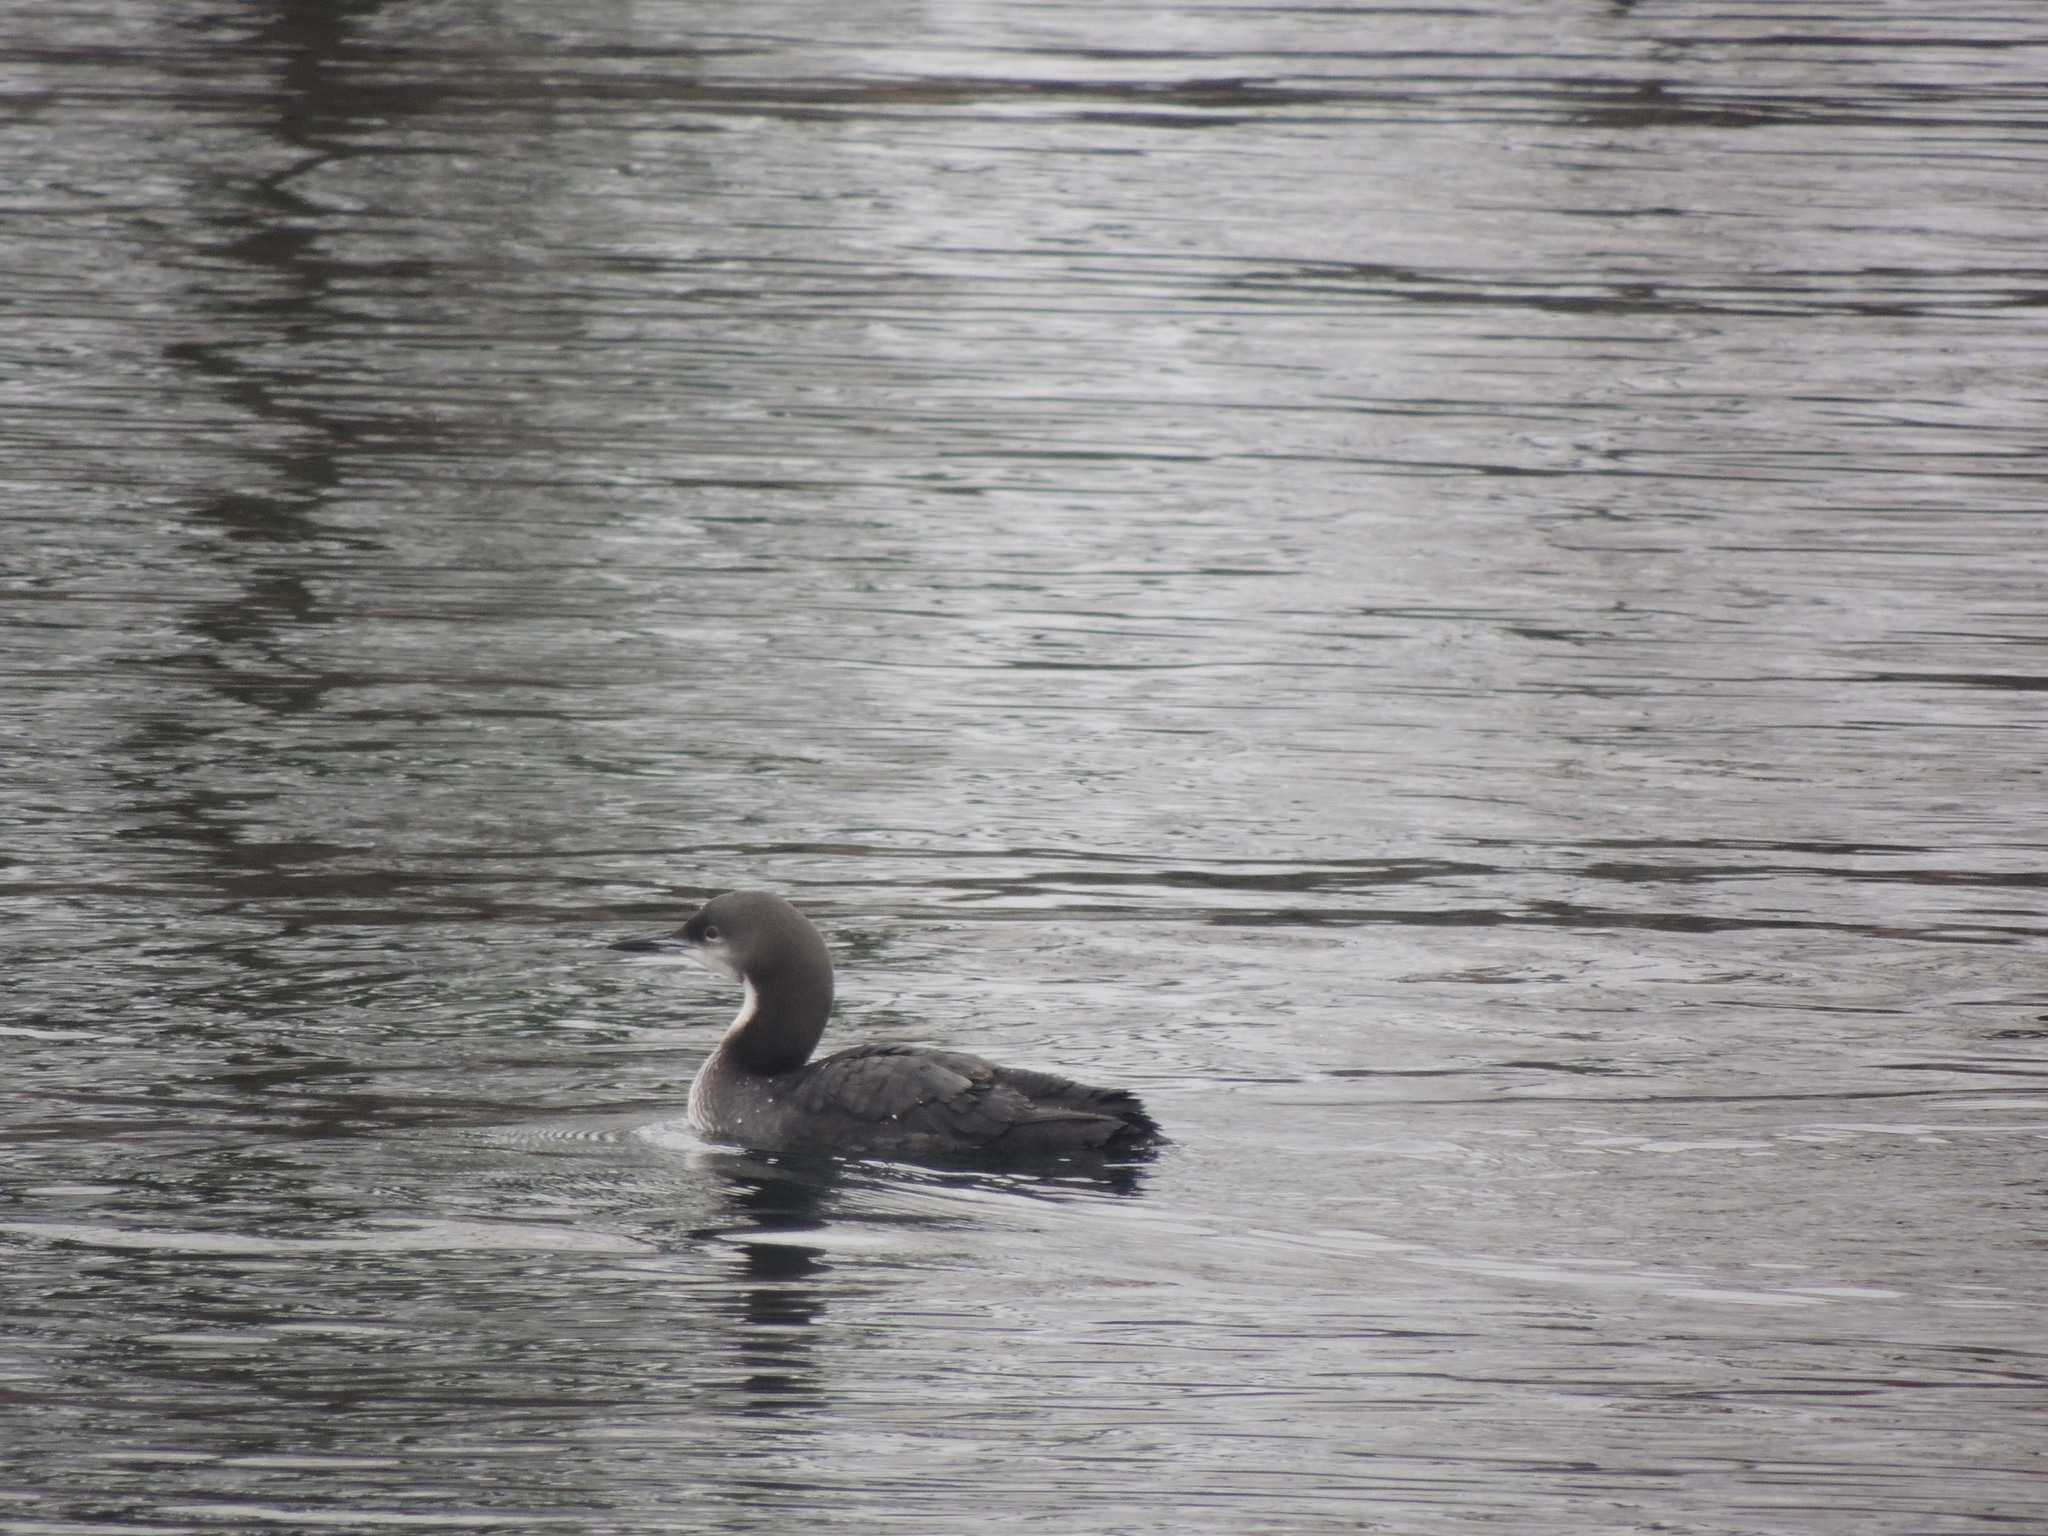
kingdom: Animalia
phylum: Chordata
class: Aves
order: Gaviiformes
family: Gaviidae
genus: Gavia
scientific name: Gavia pacifica
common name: Pacific loon
